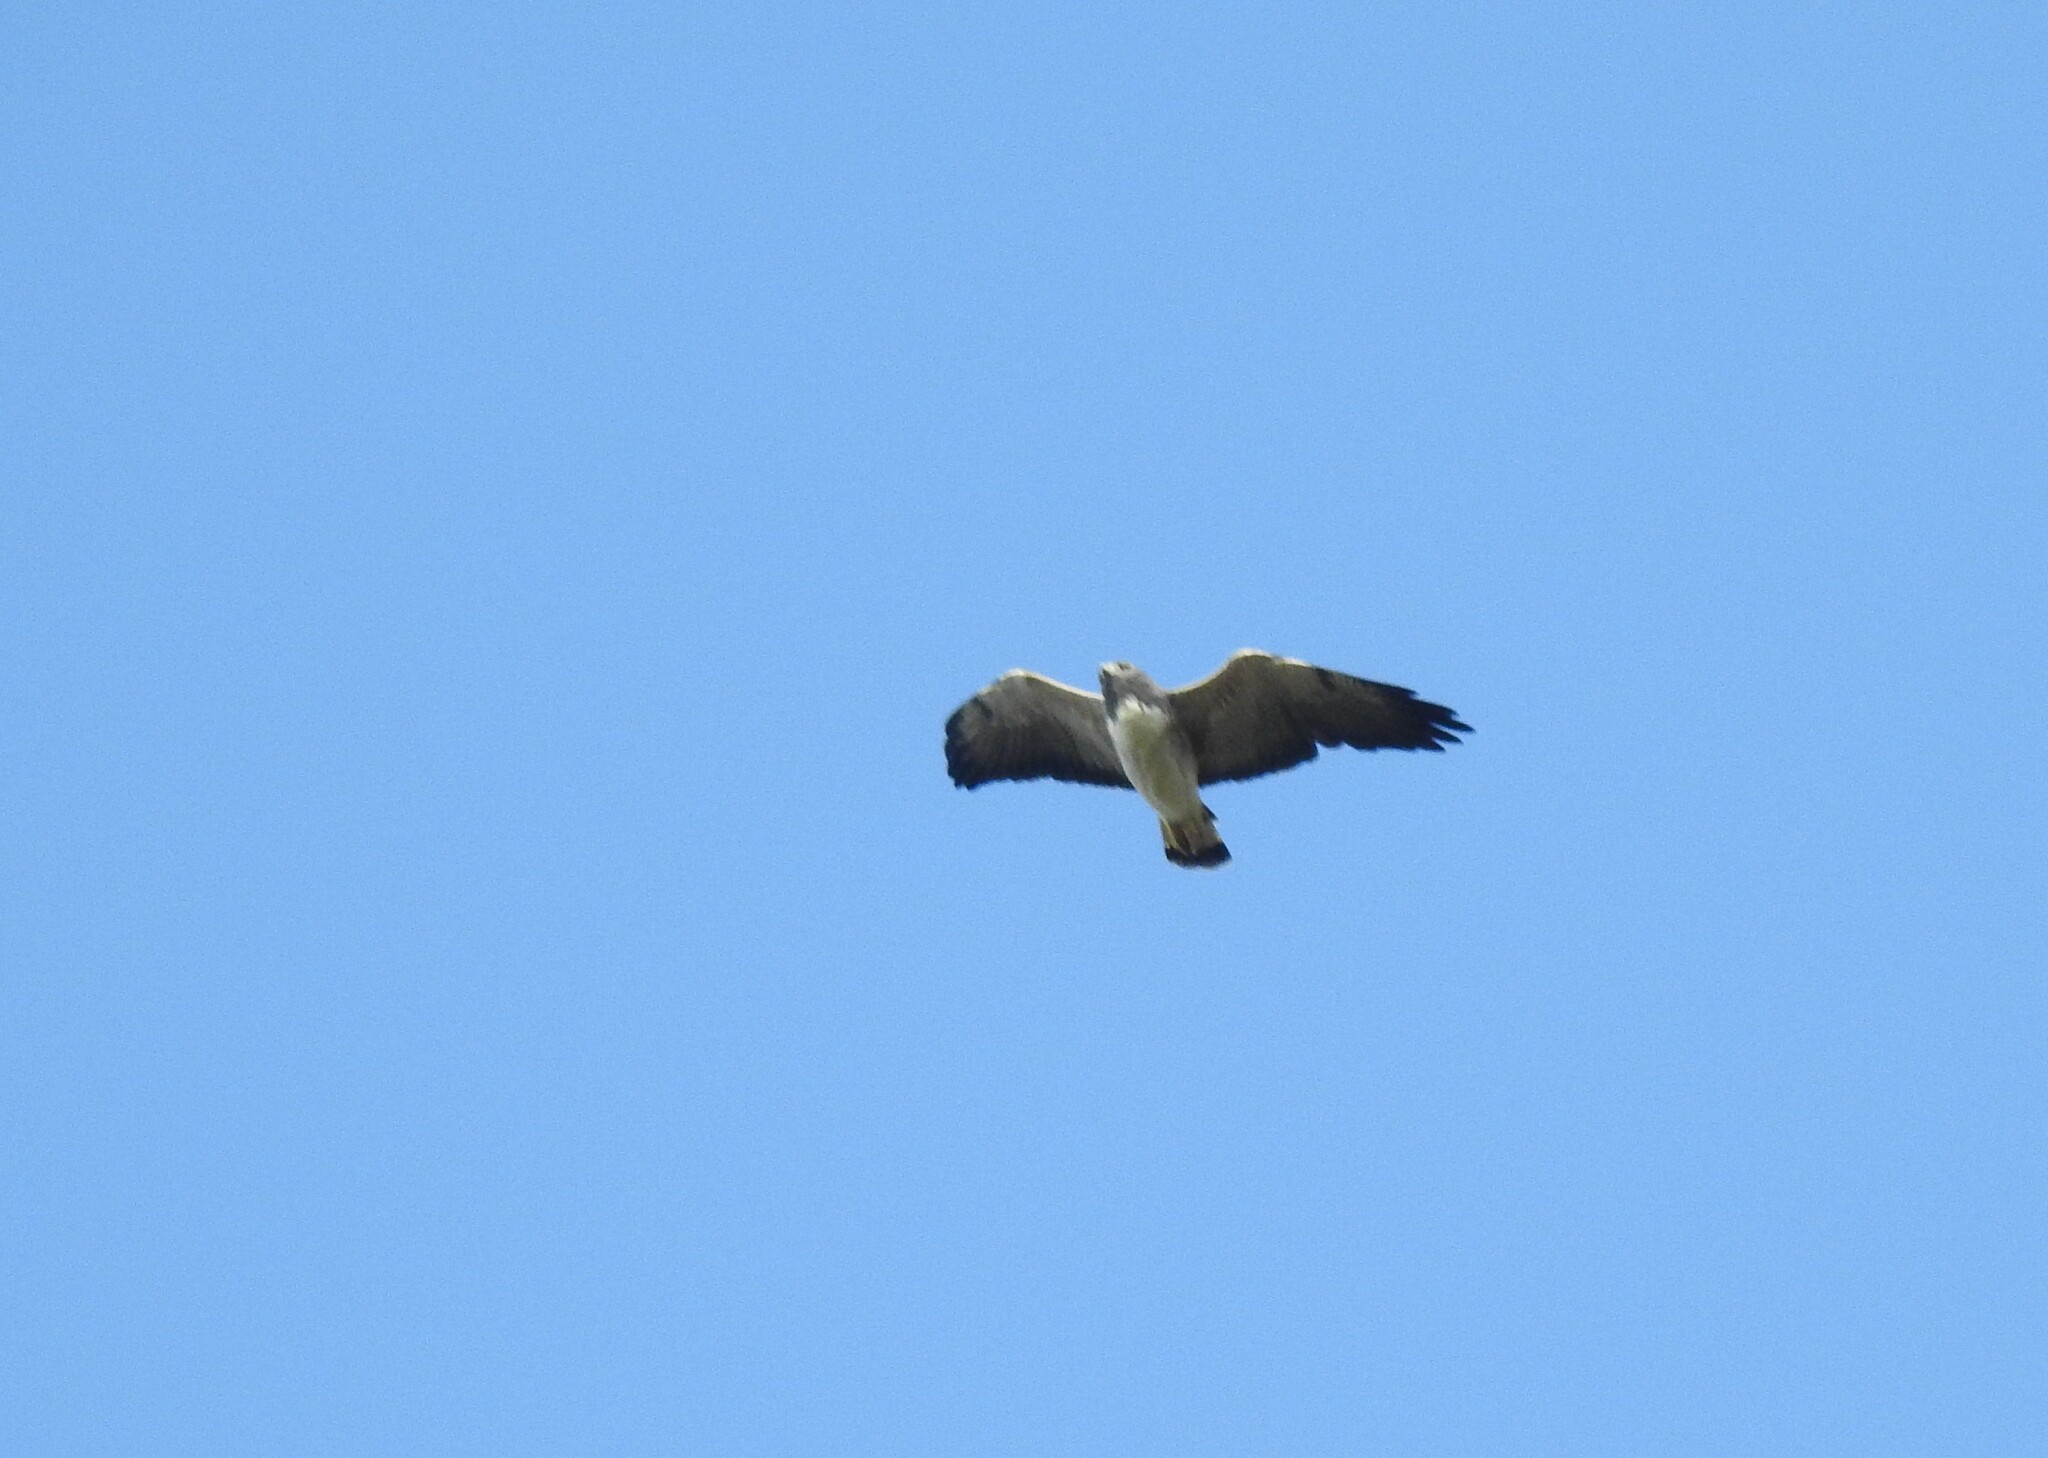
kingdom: Animalia
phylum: Chordata
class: Aves
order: Accipitriformes
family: Accipitridae
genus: Buteo
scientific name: Buteo albicaudatus
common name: White-tailed hawk
